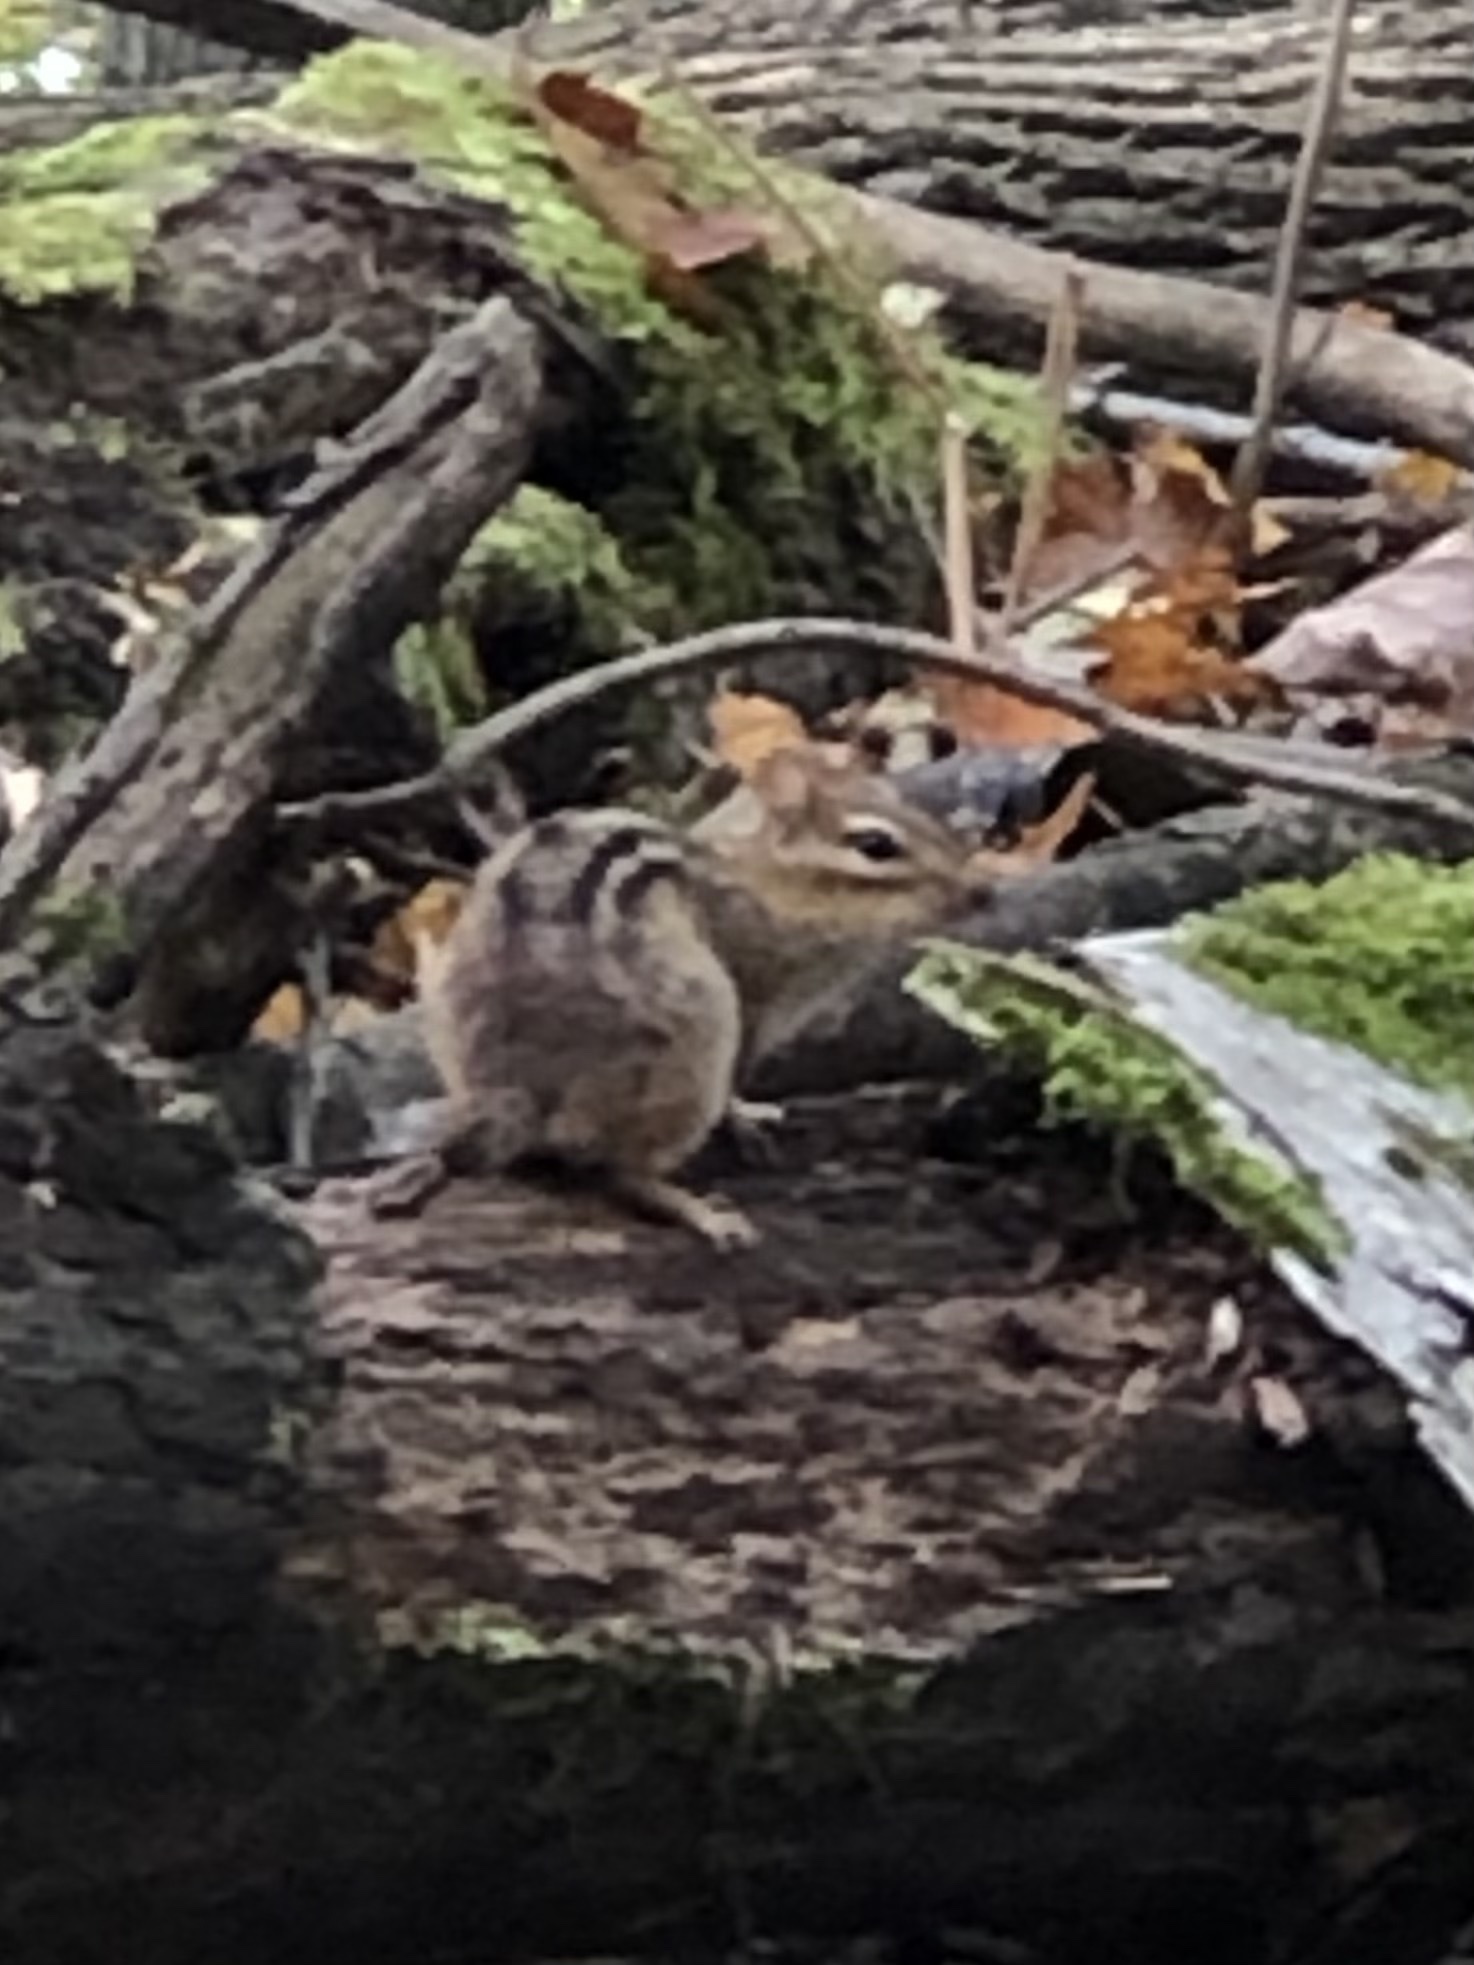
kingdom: Animalia
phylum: Chordata
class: Mammalia
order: Rodentia
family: Sciuridae
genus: Tamias
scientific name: Tamias striatus
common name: Eastern chipmunk
